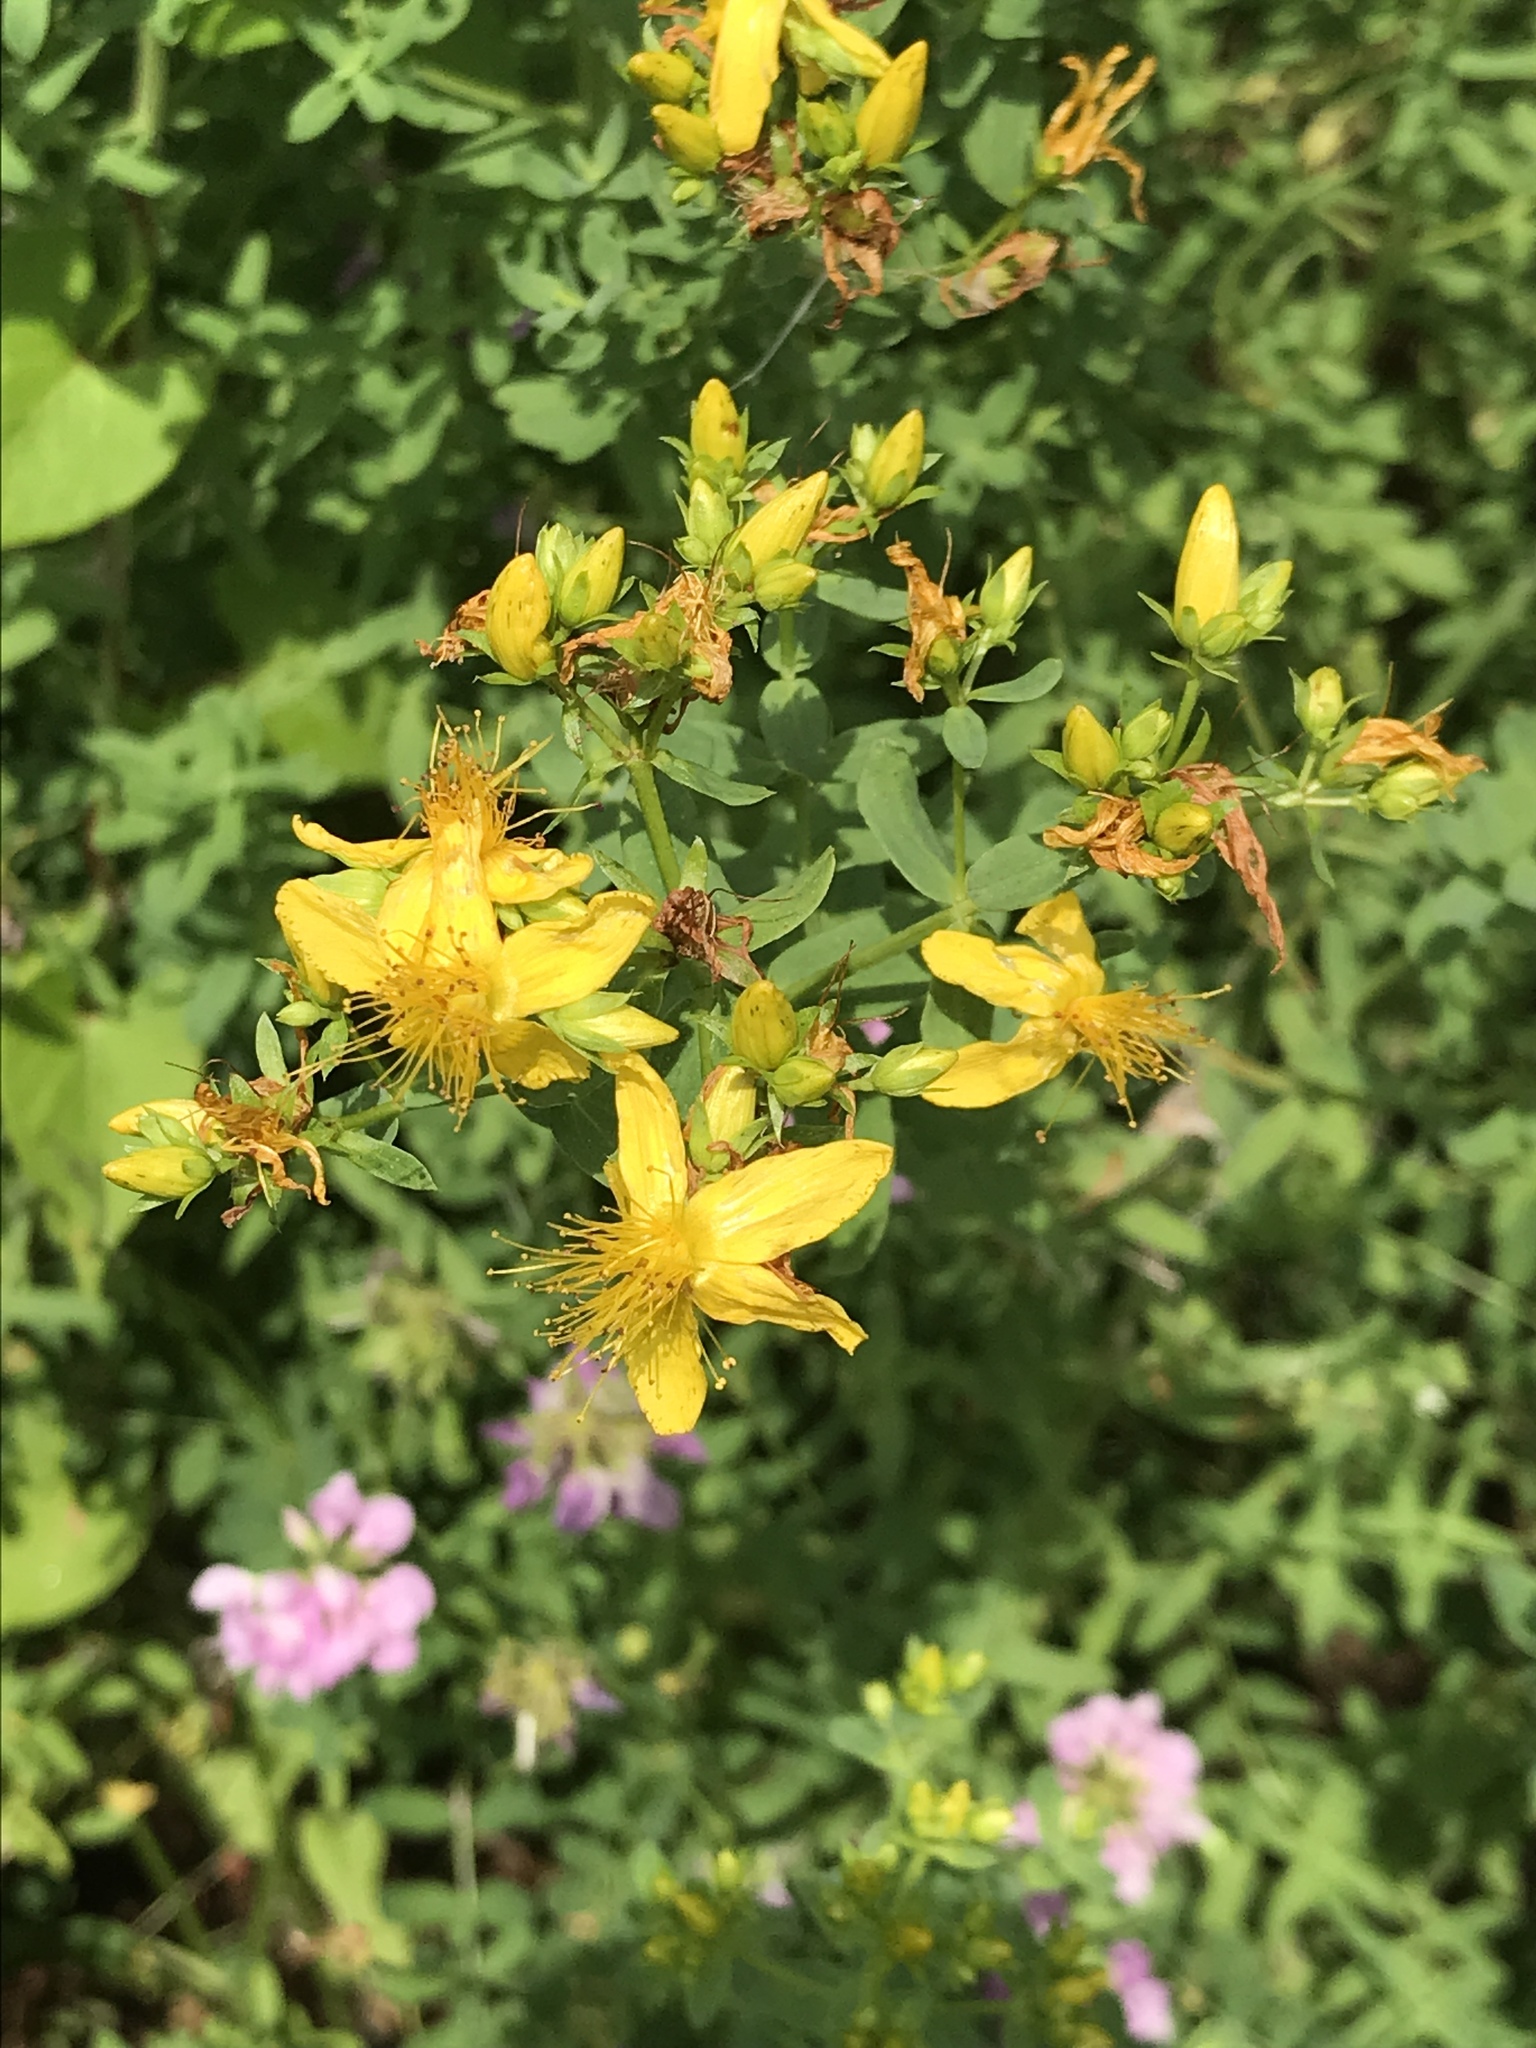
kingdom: Plantae
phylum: Tracheophyta
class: Magnoliopsida
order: Malpighiales
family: Hypericaceae
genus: Hypericum
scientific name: Hypericum perforatum
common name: Common st. johnswort
